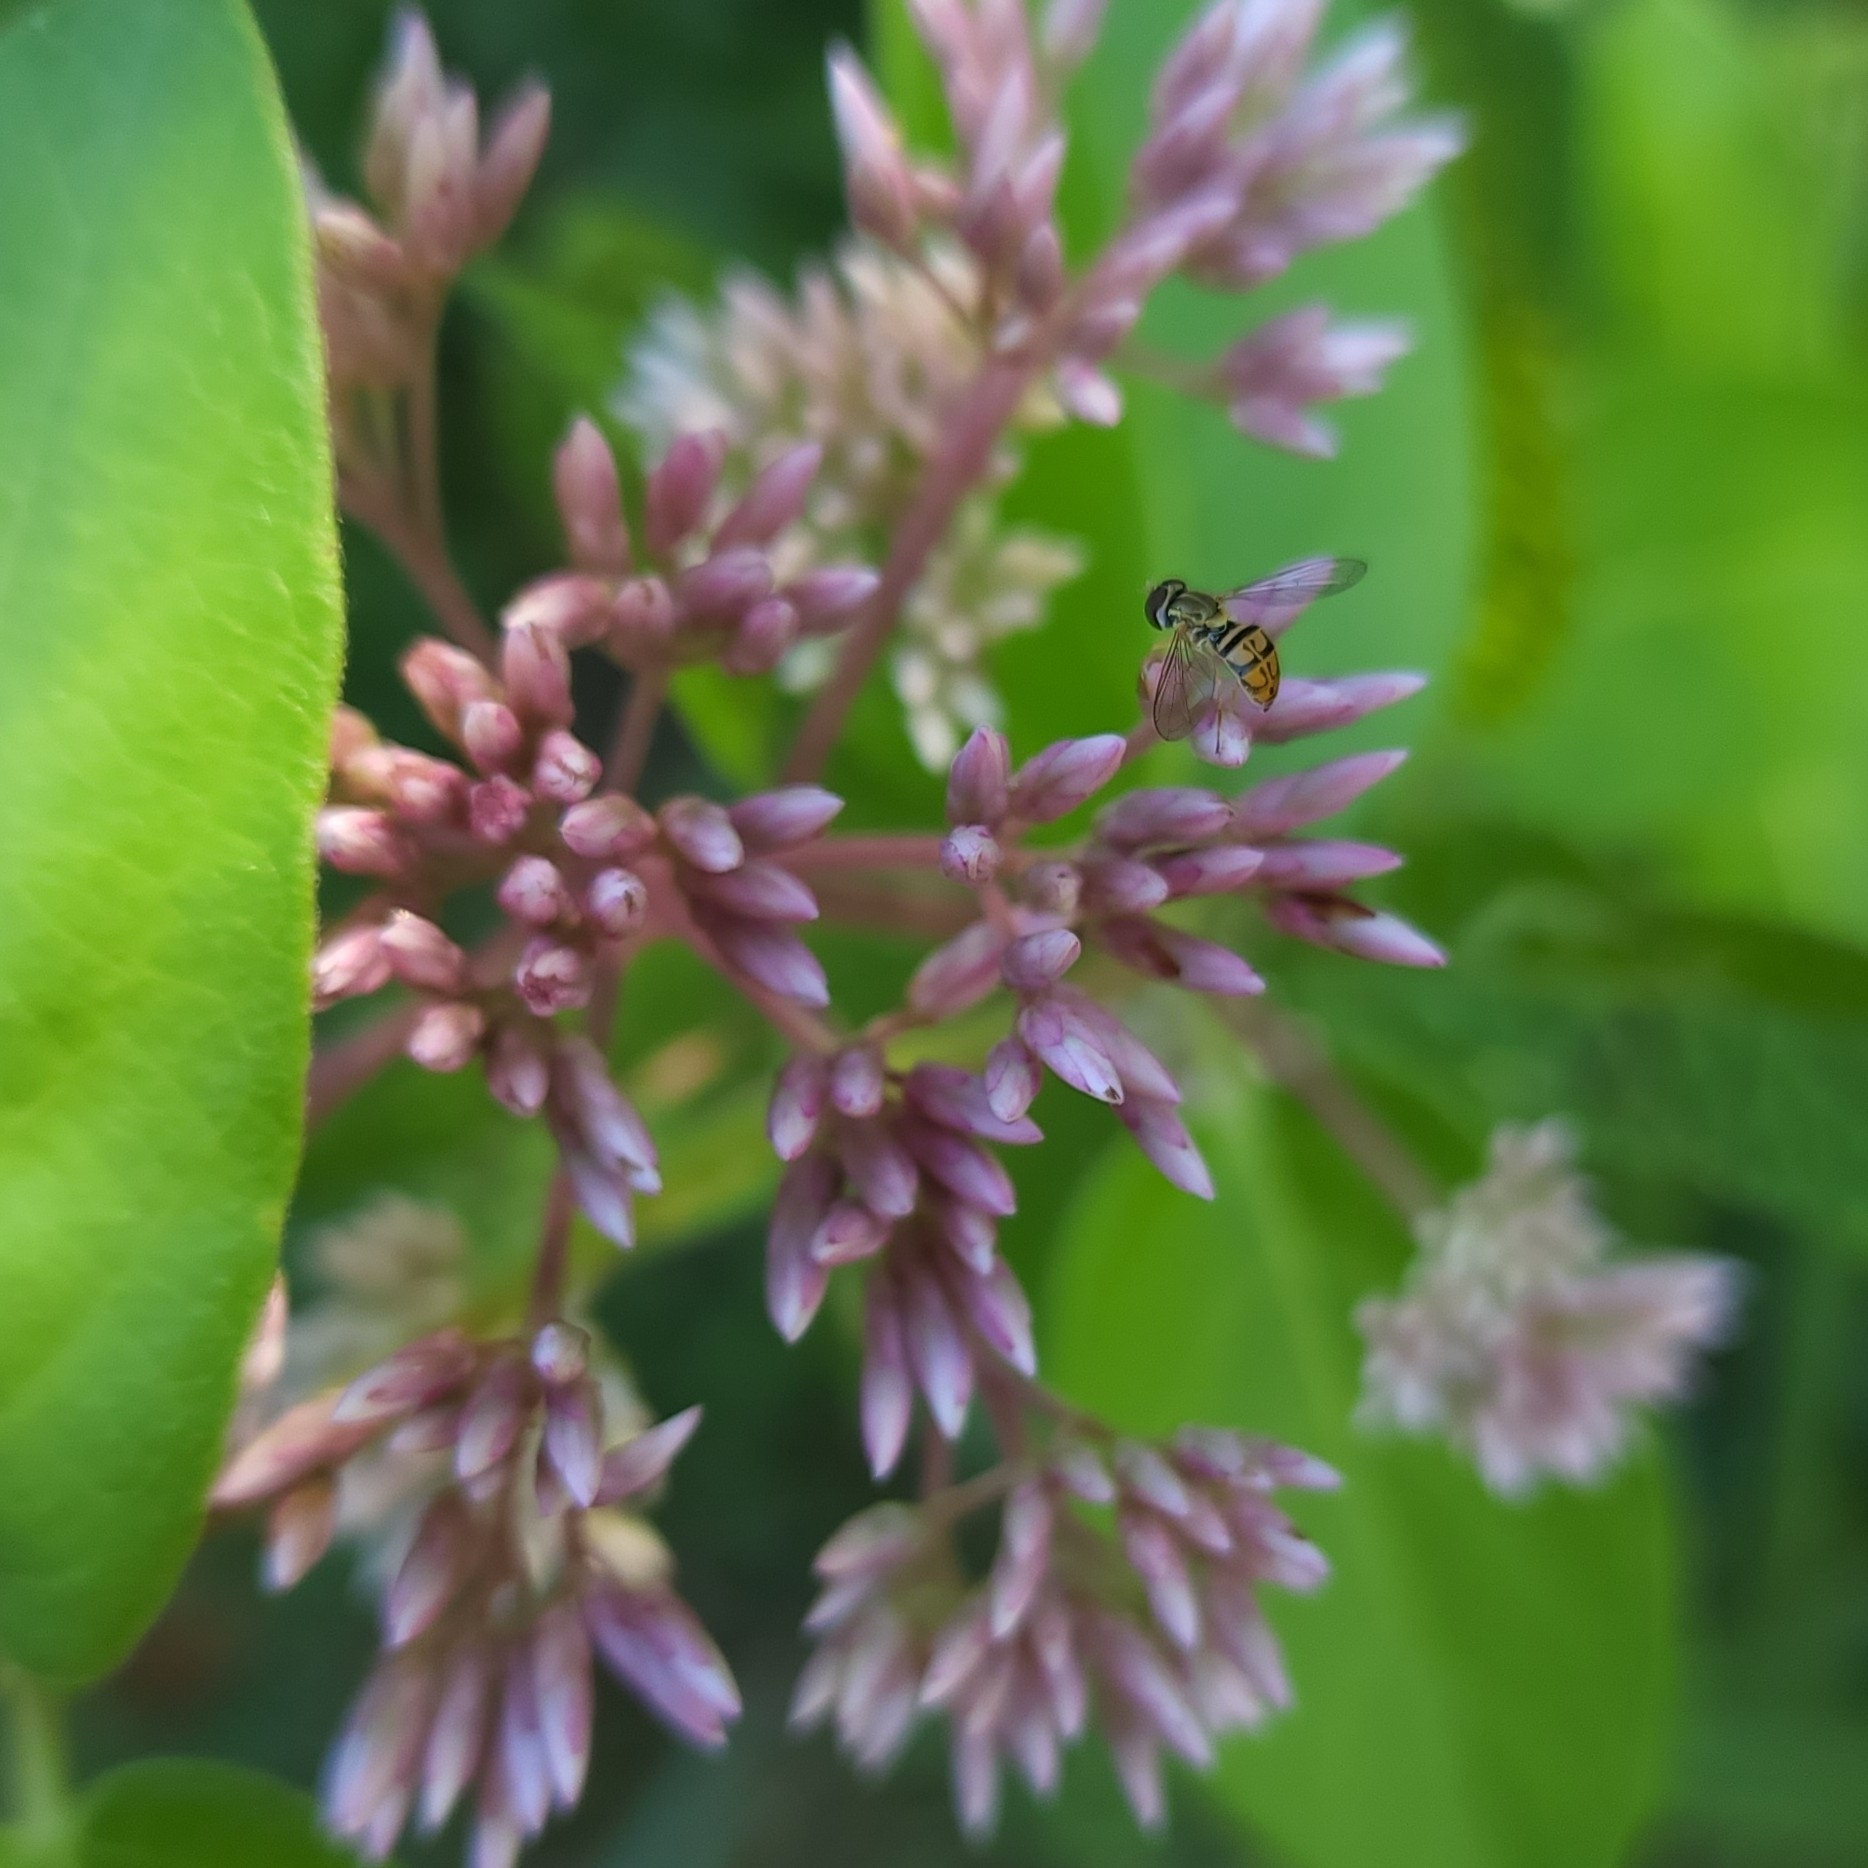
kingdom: Animalia
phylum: Arthropoda
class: Insecta
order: Diptera
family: Syrphidae
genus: Toxomerus
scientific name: Toxomerus marginatus
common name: Syrphid fly
